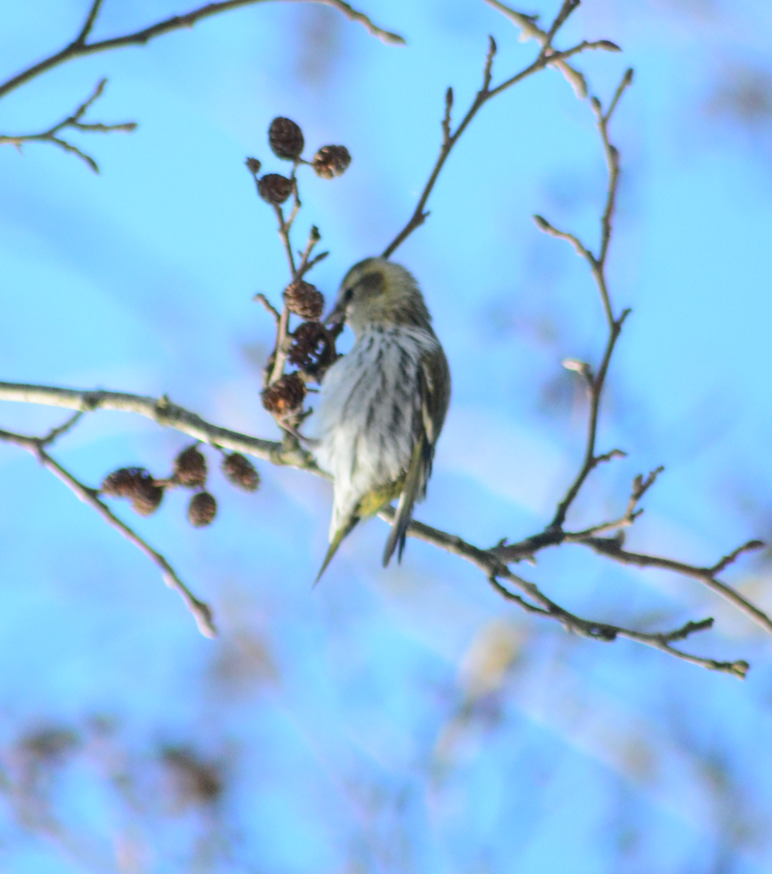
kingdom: Animalia
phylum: Chordata
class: Aves
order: Passeriformes
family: Fringillidae
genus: Spinus
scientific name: Spinus spinus
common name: Eurasian siskin
